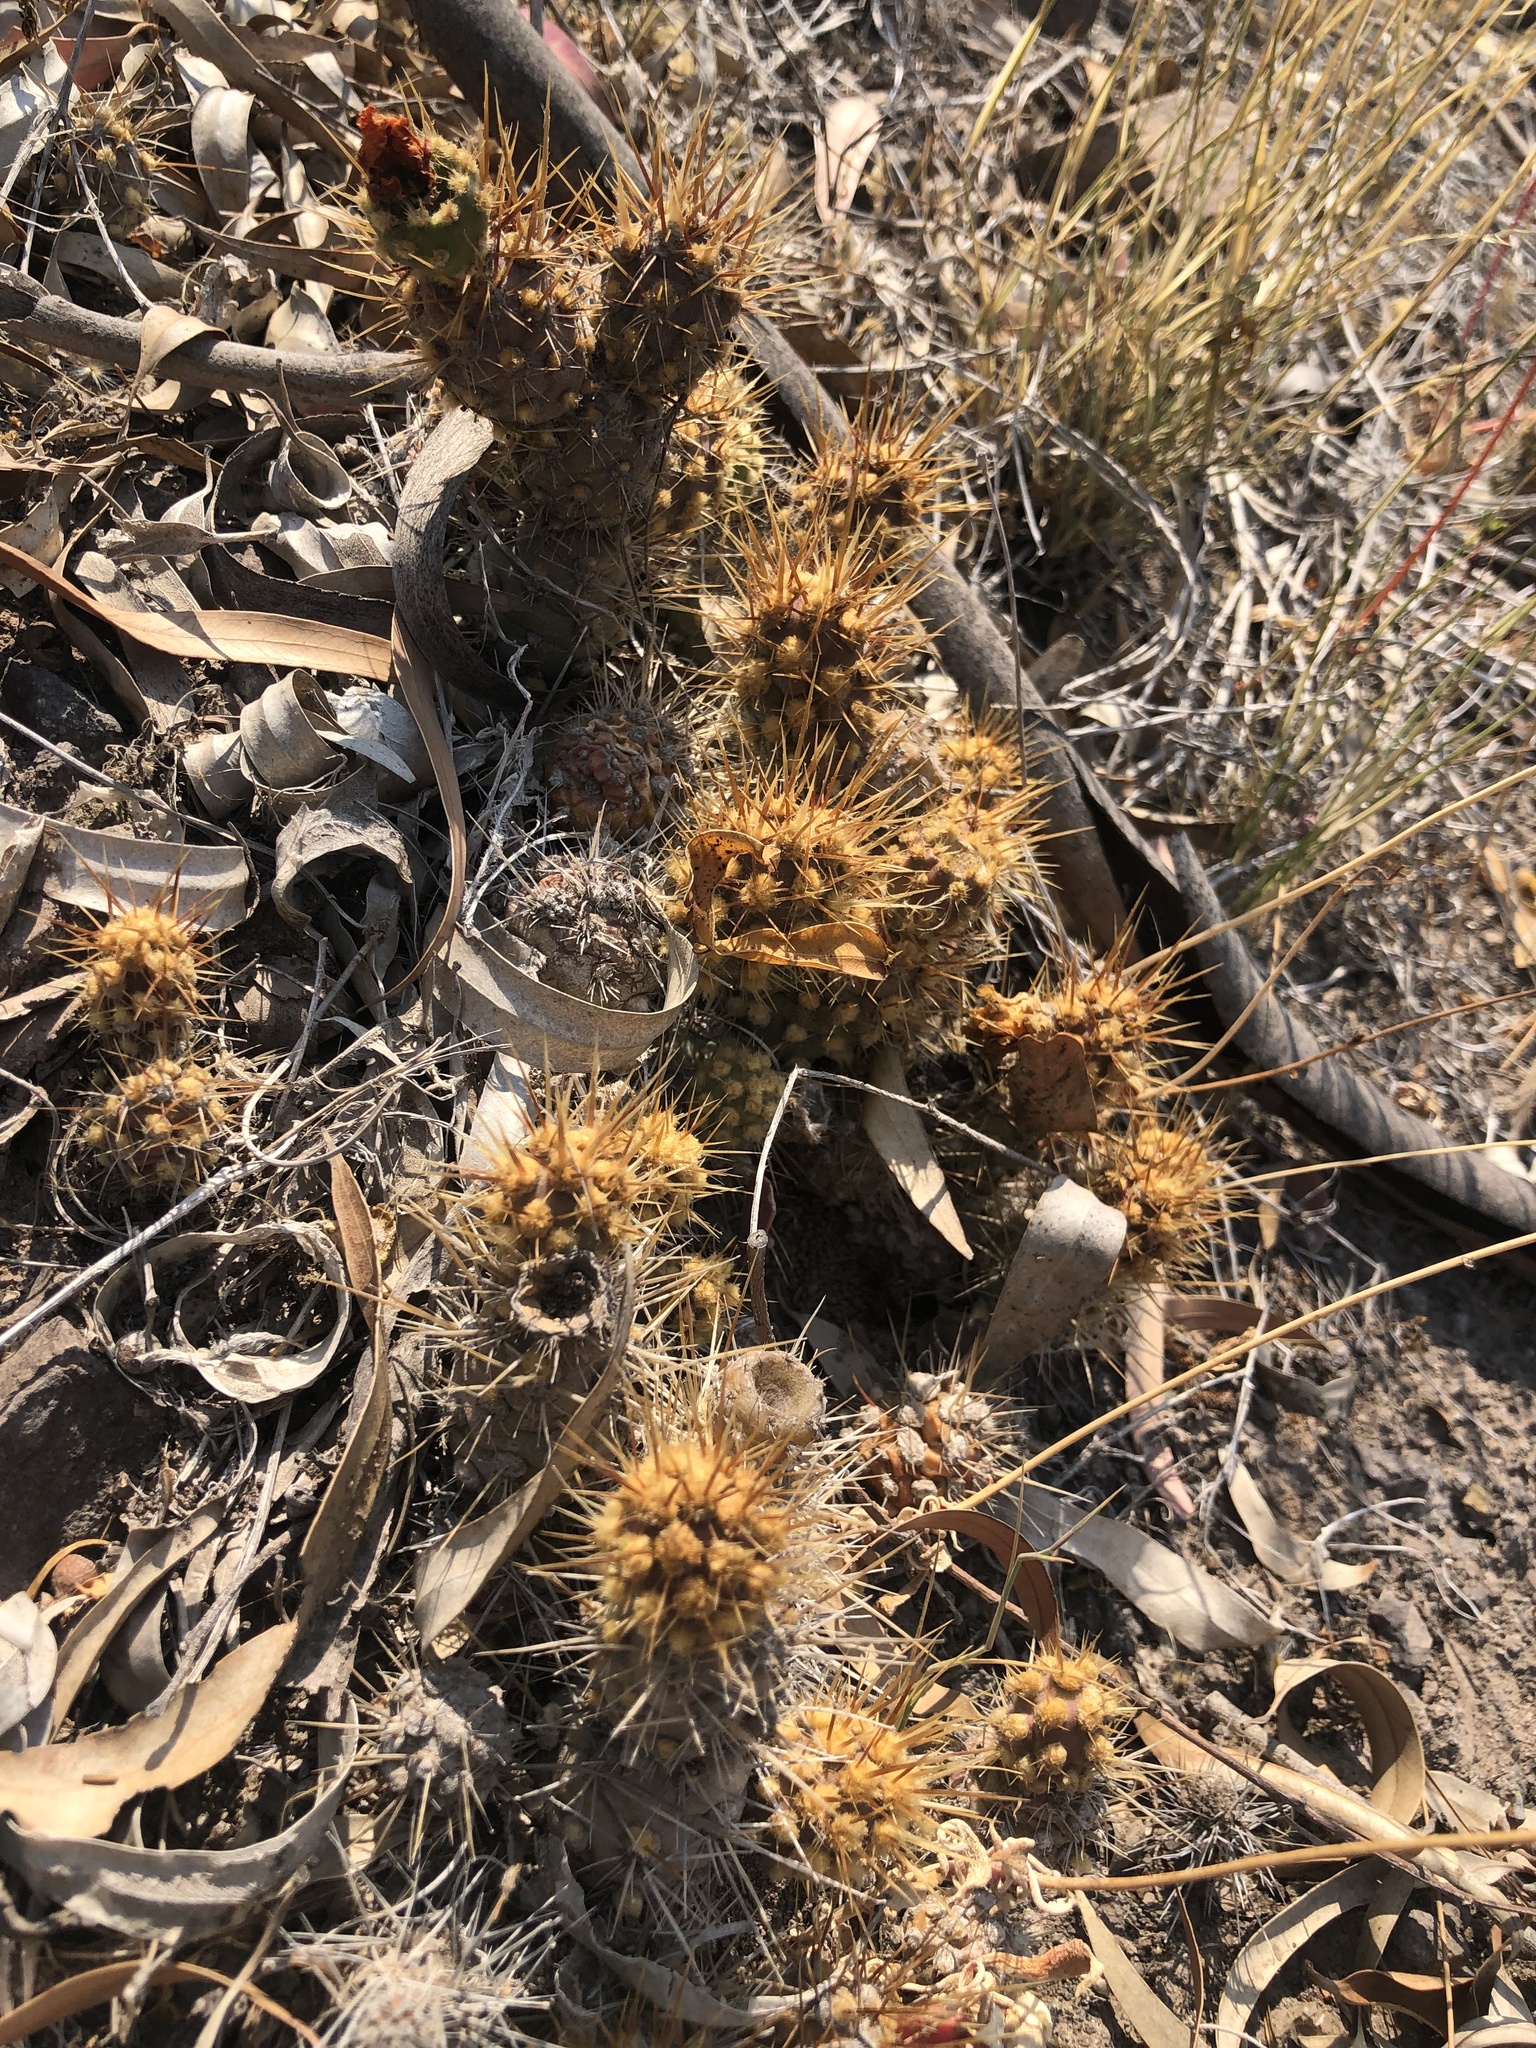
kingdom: Plantae
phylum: Tracheophyta
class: Magnoliopsida
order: Caryophyllales
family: Cactaceae
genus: Cumulopuntia
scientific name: Cumulopuntia leucophaea
